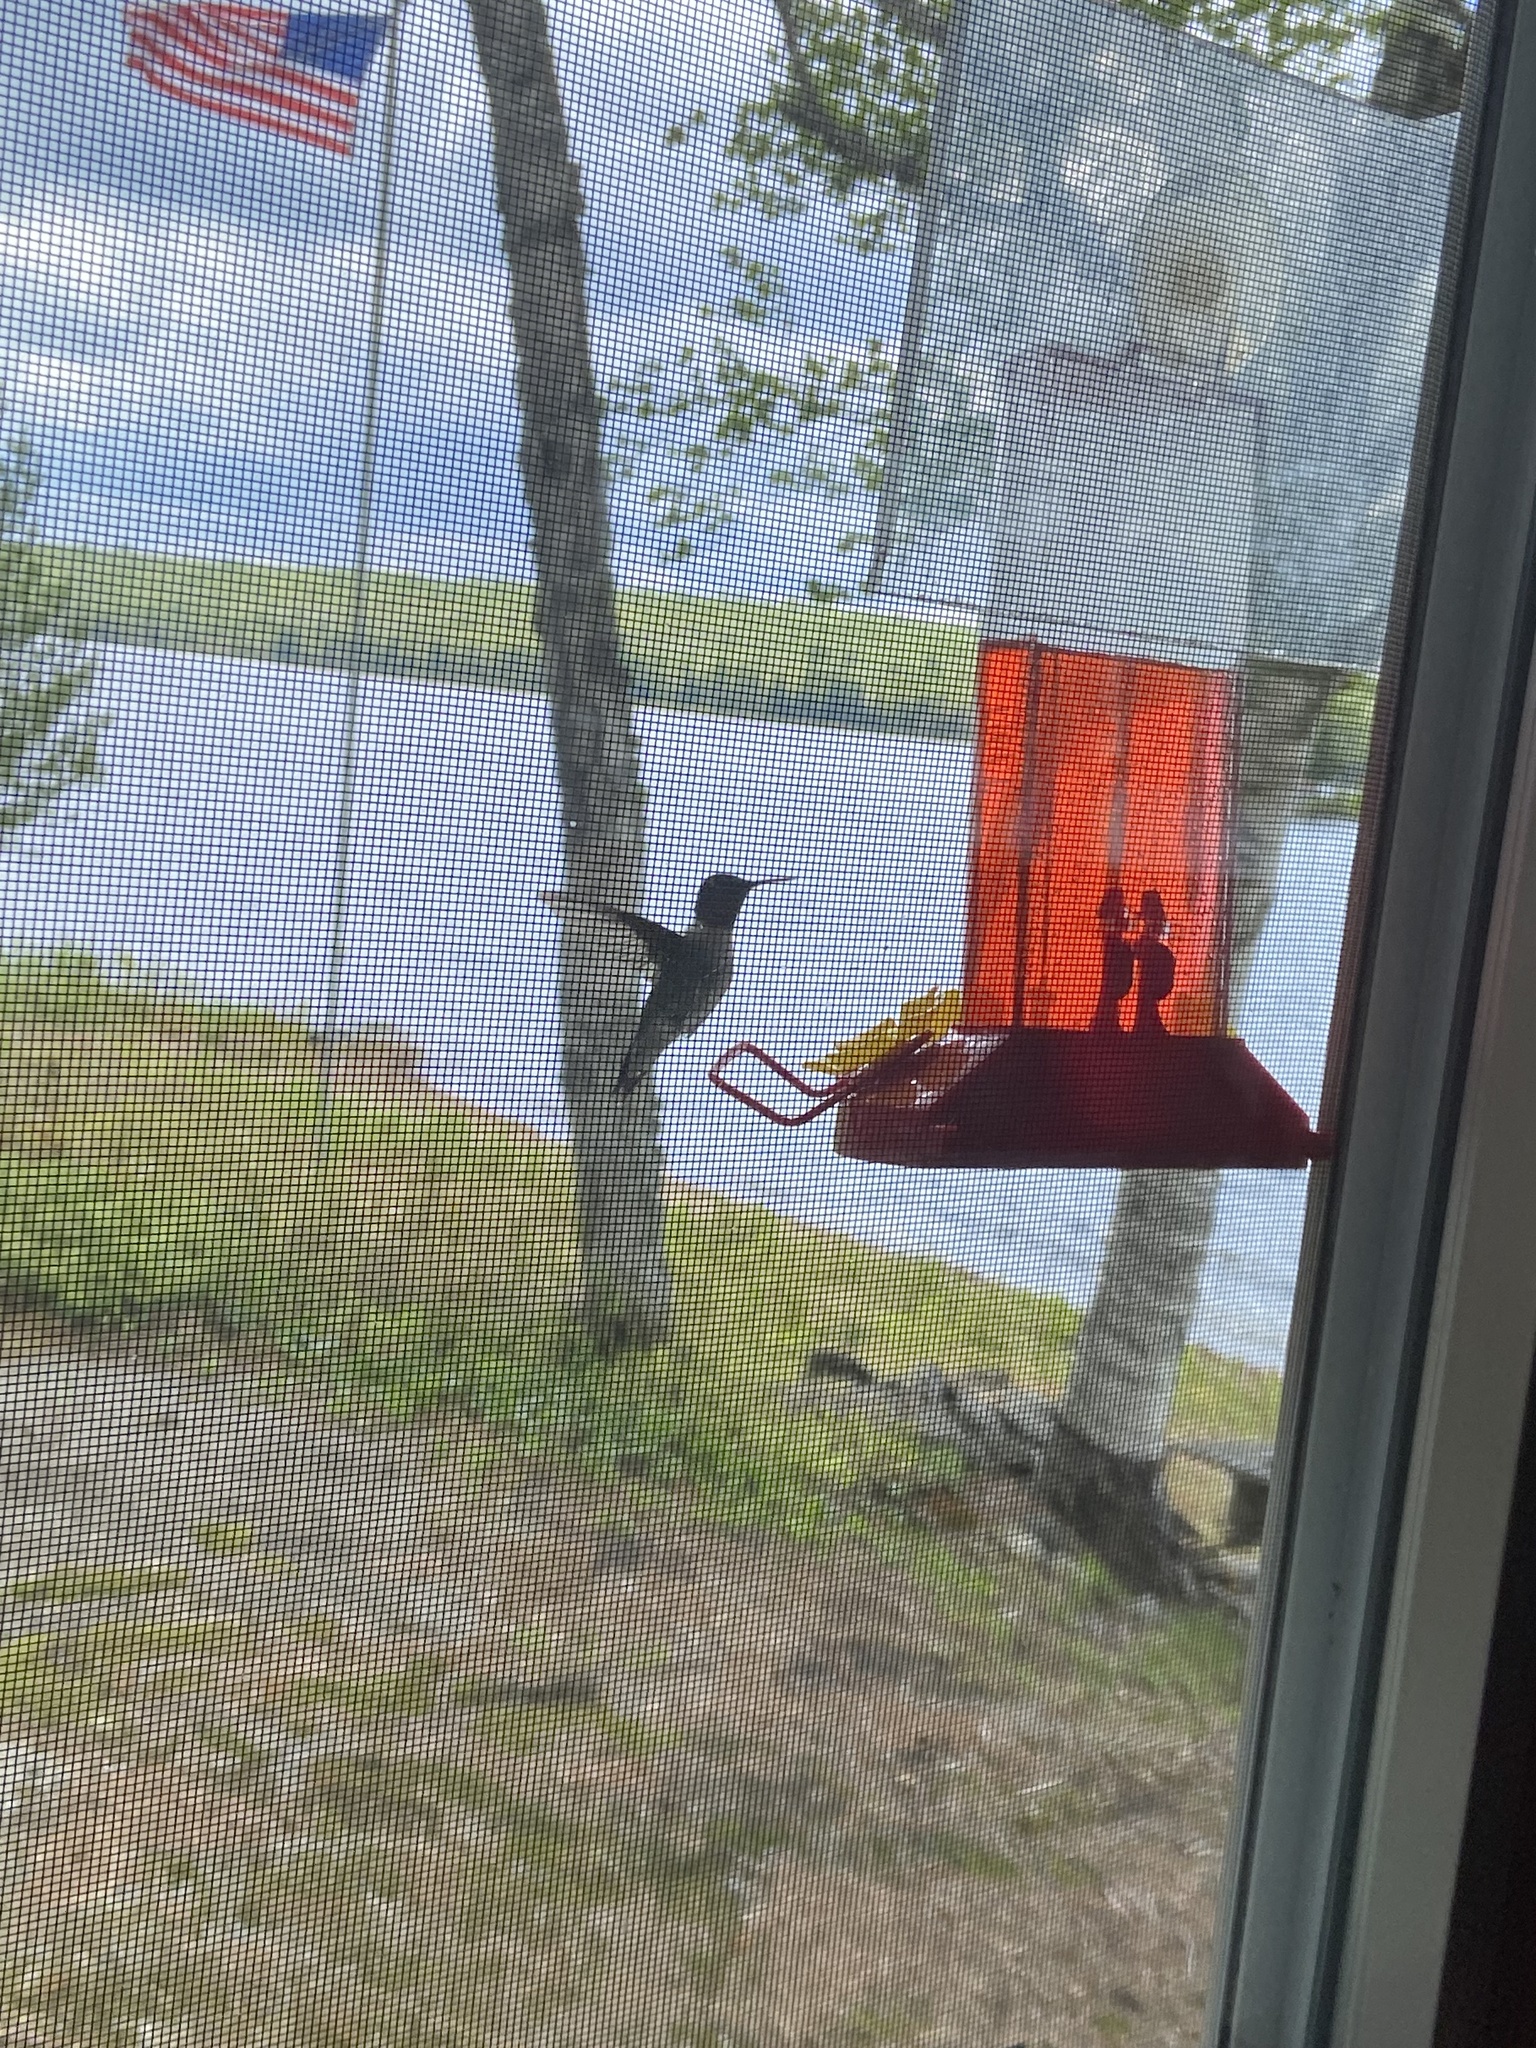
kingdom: Animalia
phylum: Chordata
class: Aves
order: Apodiformes
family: Trochilidae
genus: Archilochus
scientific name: Archilochus colubris
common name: Ruby-throated hummingbird
